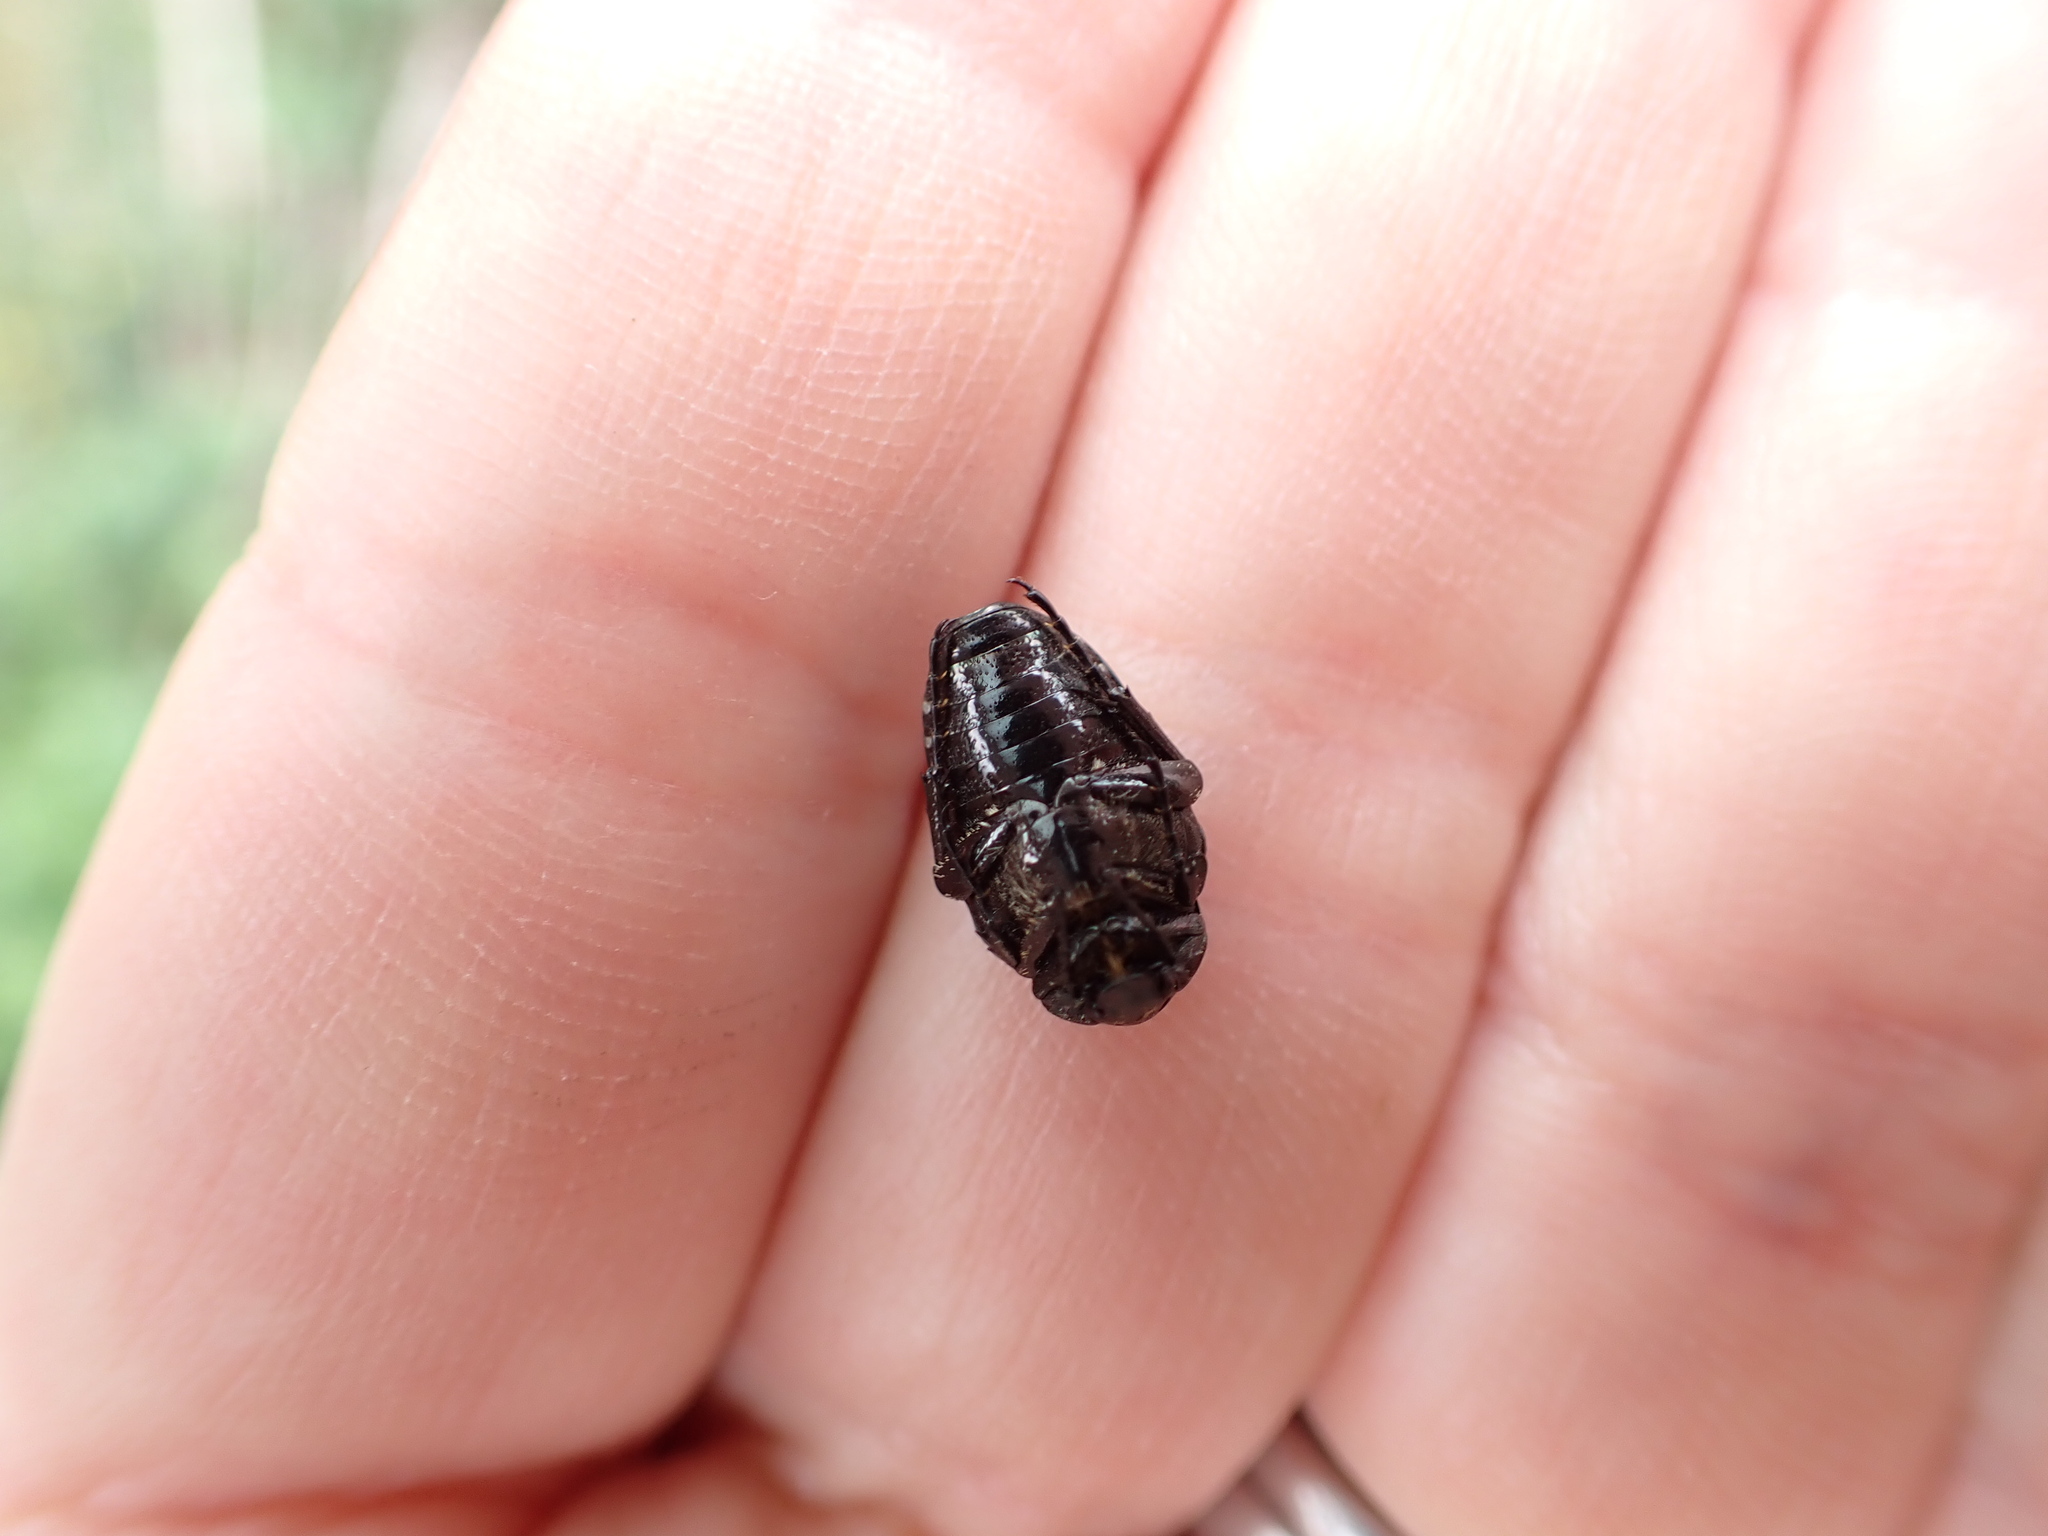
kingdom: Animalia
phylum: Arthropoda
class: Insecta
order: Coleoptera
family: Scarabaeidae
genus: Oxythyrea
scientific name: Oxythyrea funesta
